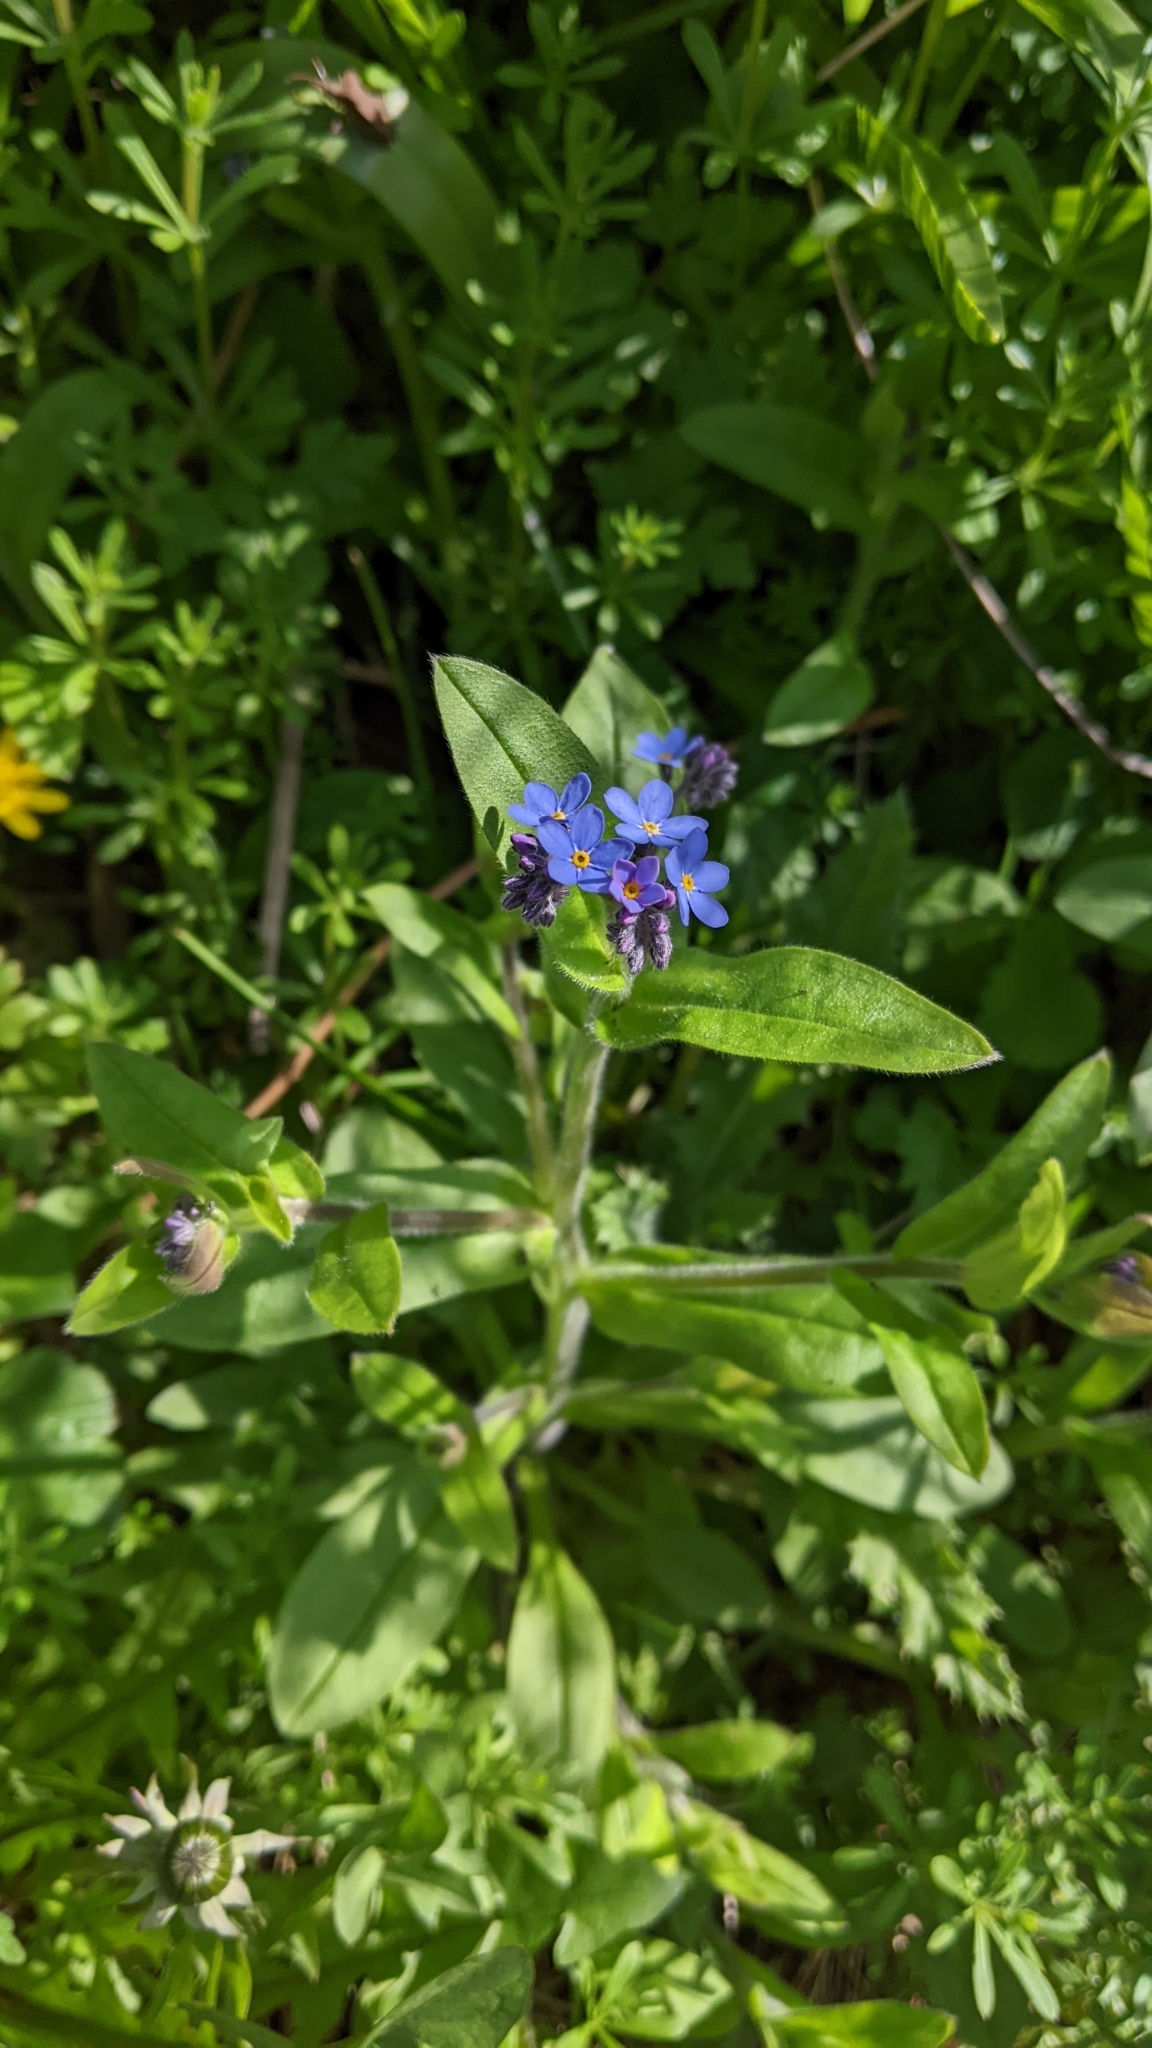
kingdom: Plantae
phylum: Tracheophyta
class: Magnoliopsida
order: Boraginales
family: Boraginaceae
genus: Myosotis
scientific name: Myosotis sylvatica
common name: Wood forget-me-not
